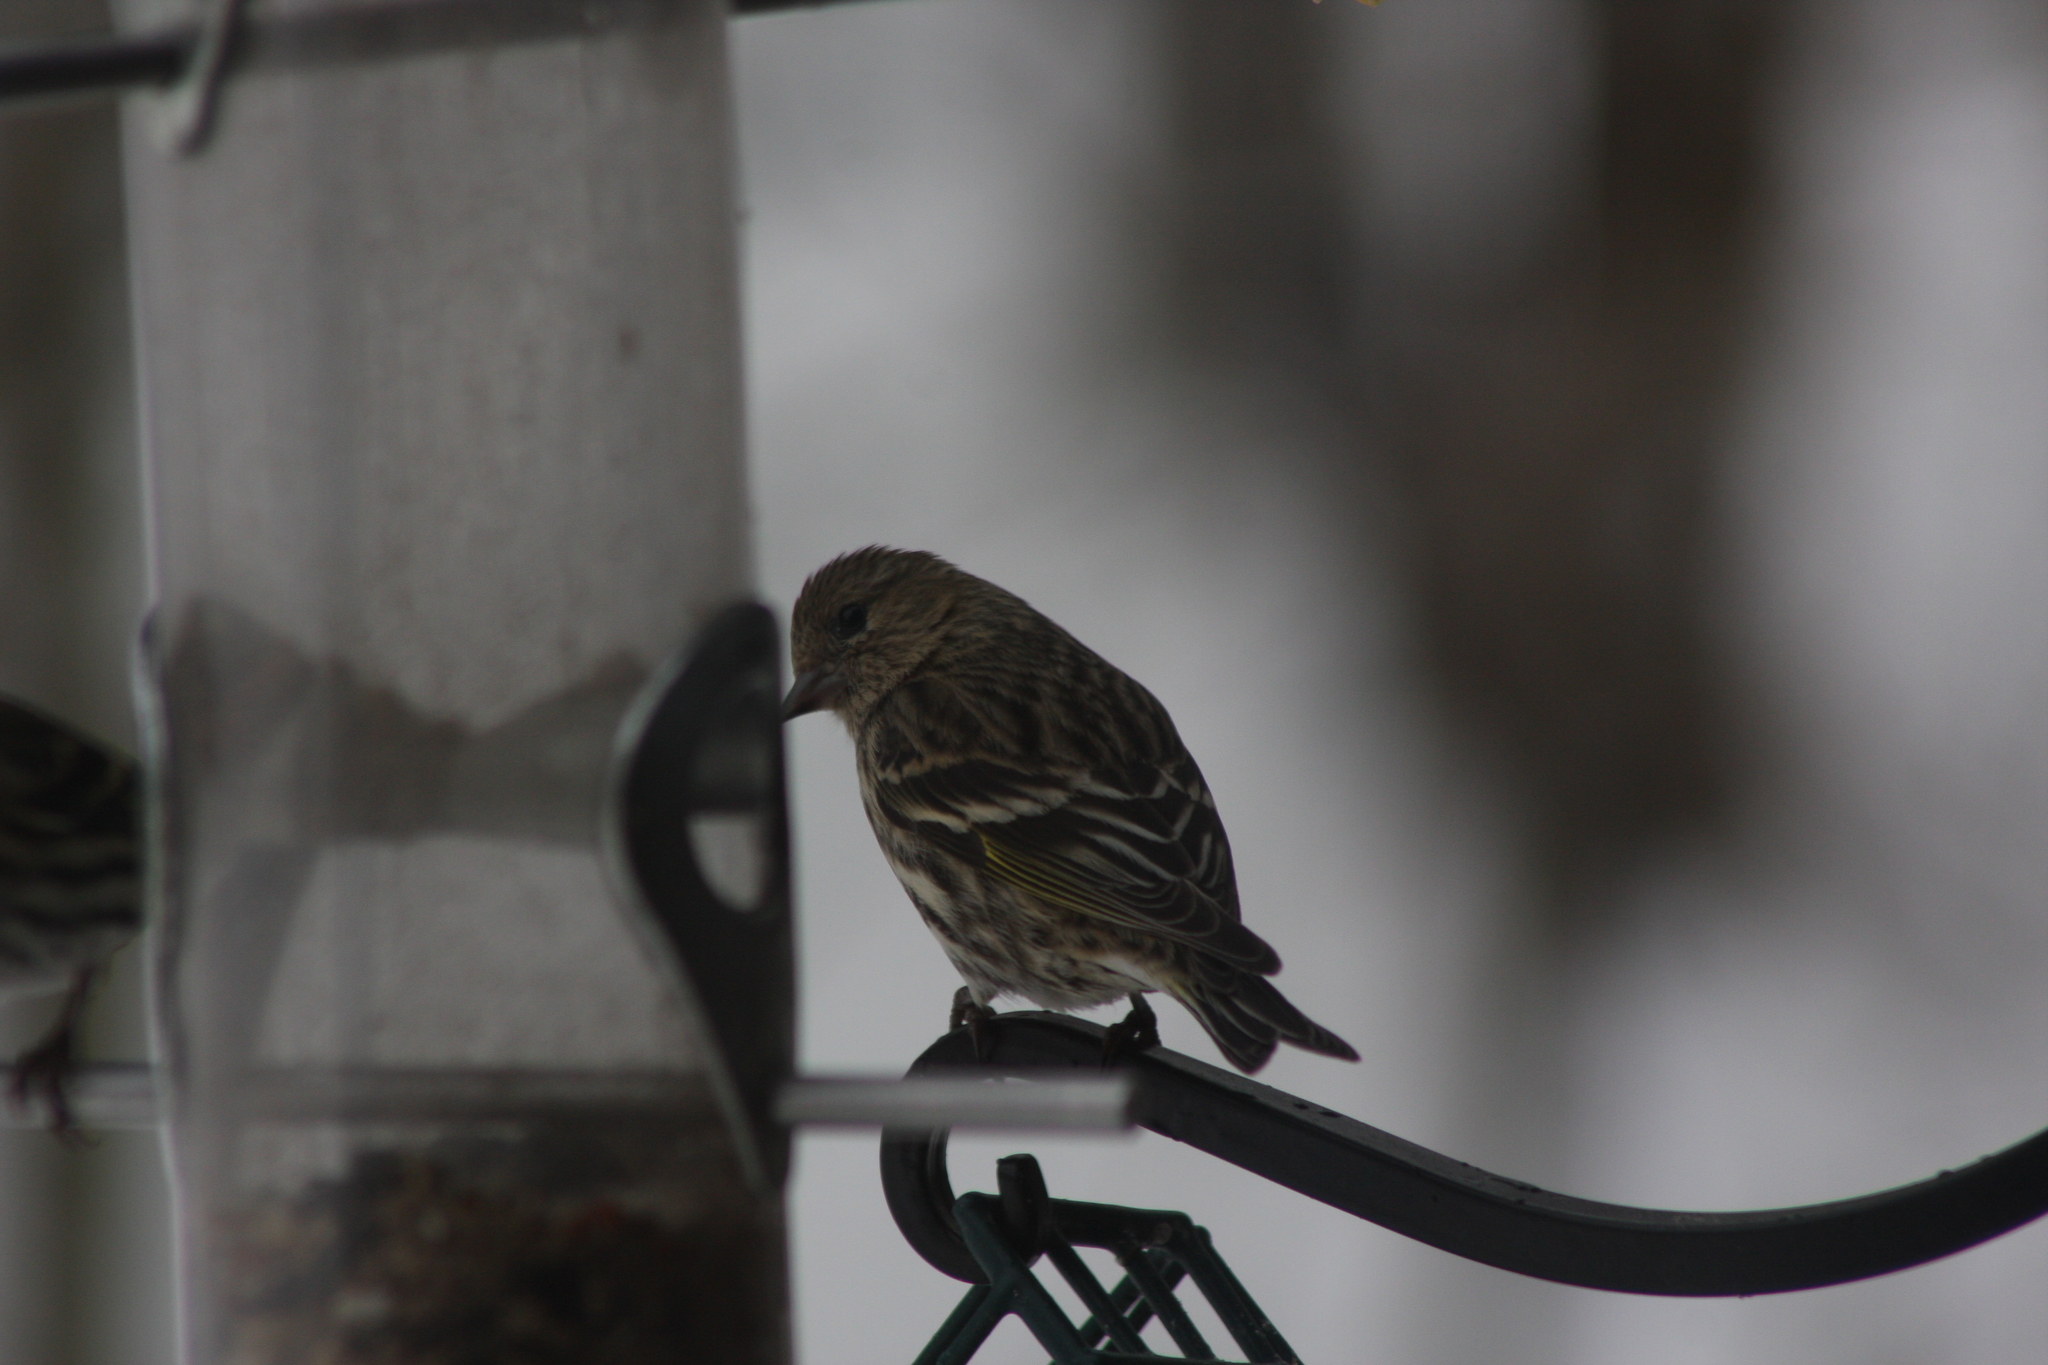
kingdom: Animalia
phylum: Chordata
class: Aves
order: Passeriformes
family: Fringillidae
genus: Spinus
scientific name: Spinus pinus
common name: Pine siskin
